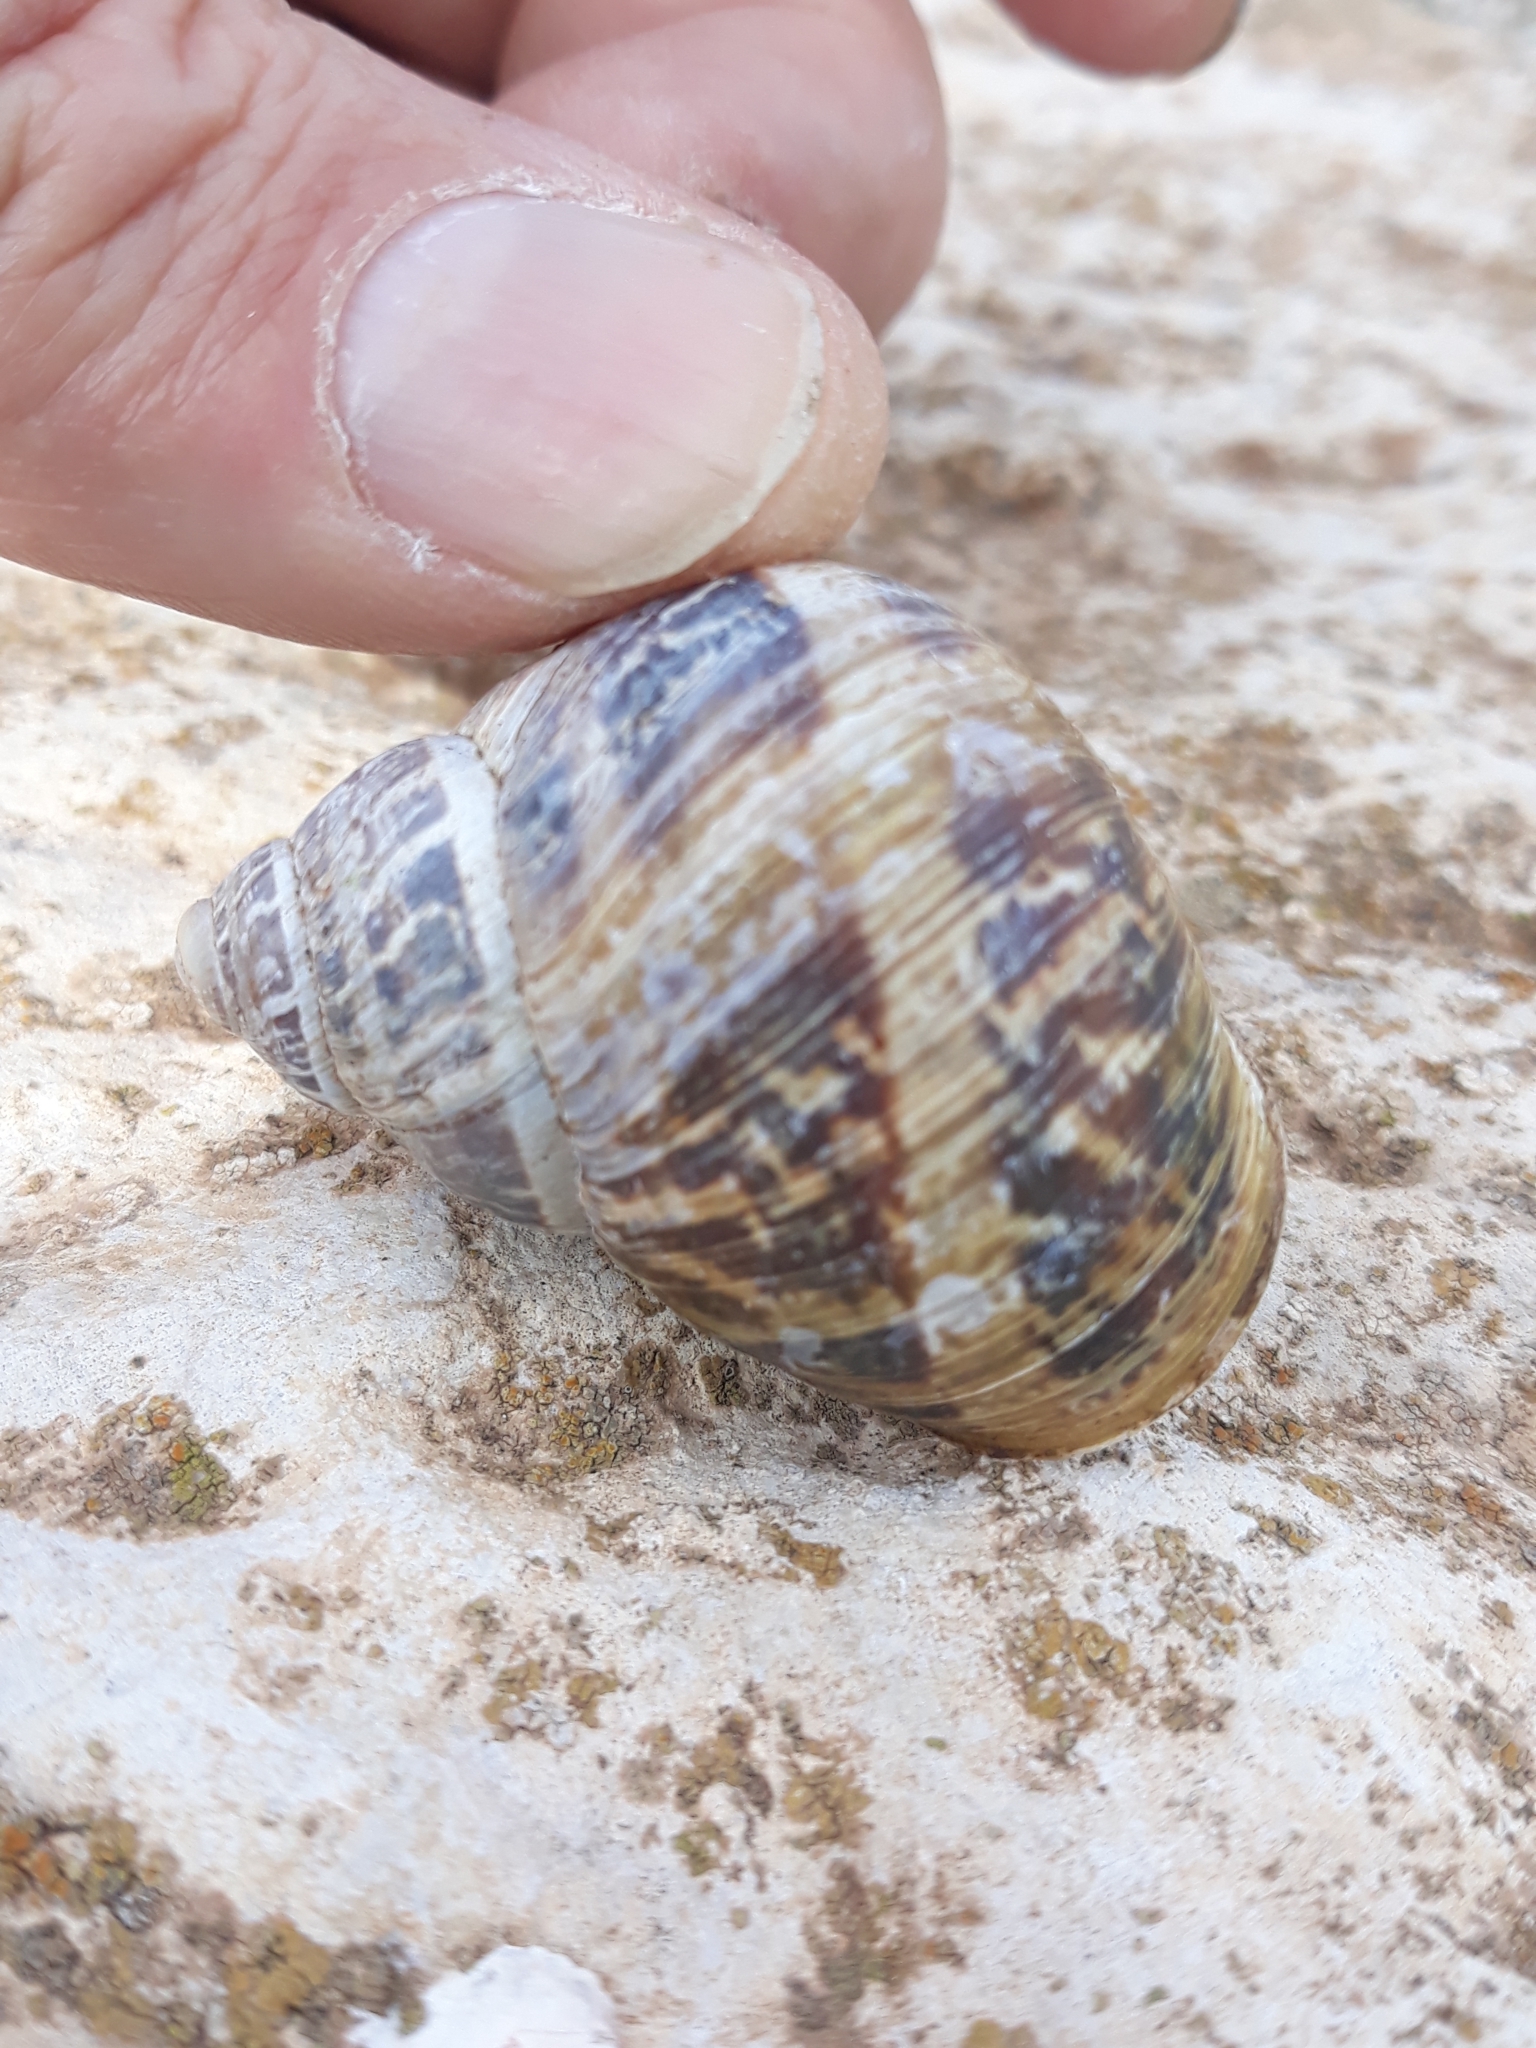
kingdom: Animalia
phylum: Mollusca
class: Gastropoda
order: Stylommatophora
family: Helicidae
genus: Cornu
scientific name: Cornu aspersum
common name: Brown garden snail
